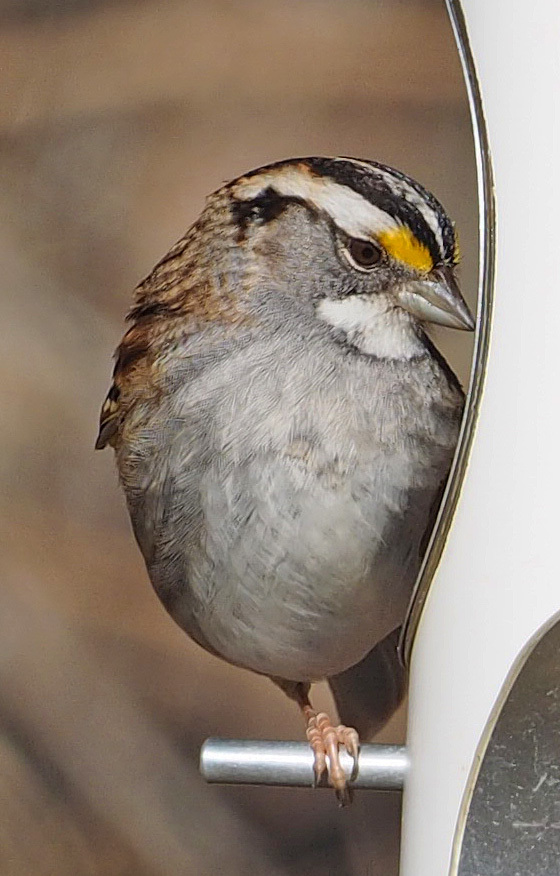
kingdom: Animalia
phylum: Chordata
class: Aves
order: Passeriformes
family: Passerellidae
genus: Zonotrichia
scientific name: Zonotrichia albicollis
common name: White-throated sparrow
